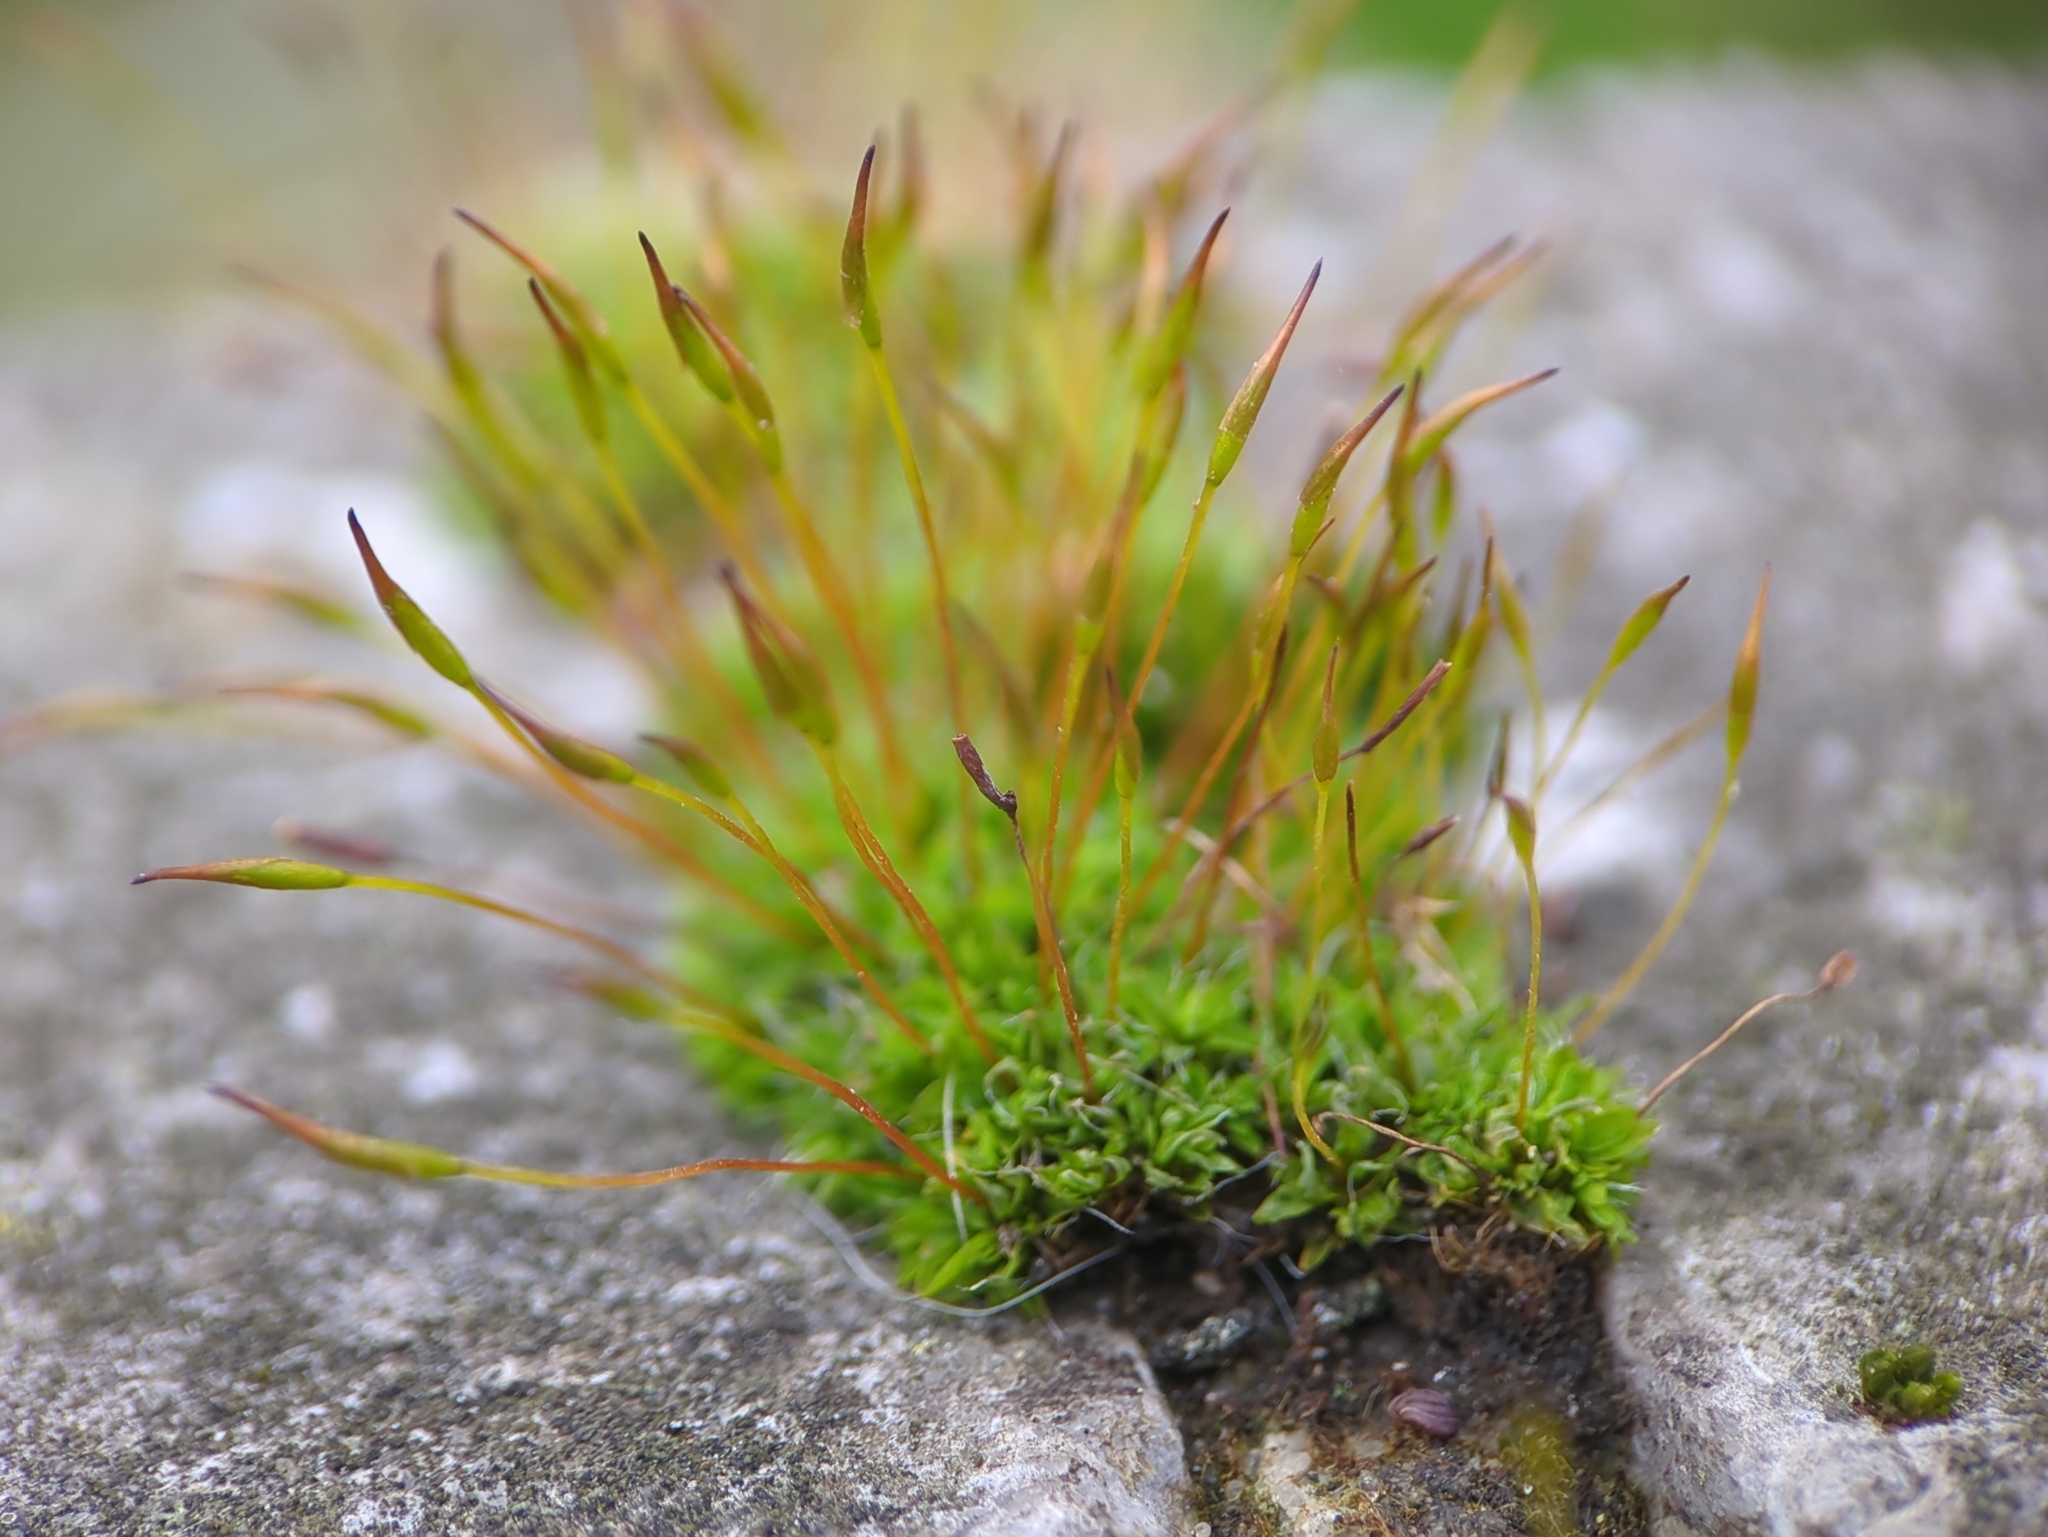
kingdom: Plantae
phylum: Bryophyta
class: Bryopsida
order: Pottiales
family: Pottiaceae
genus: Tortula
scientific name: Tortula muralis
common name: Wall screw-moss
